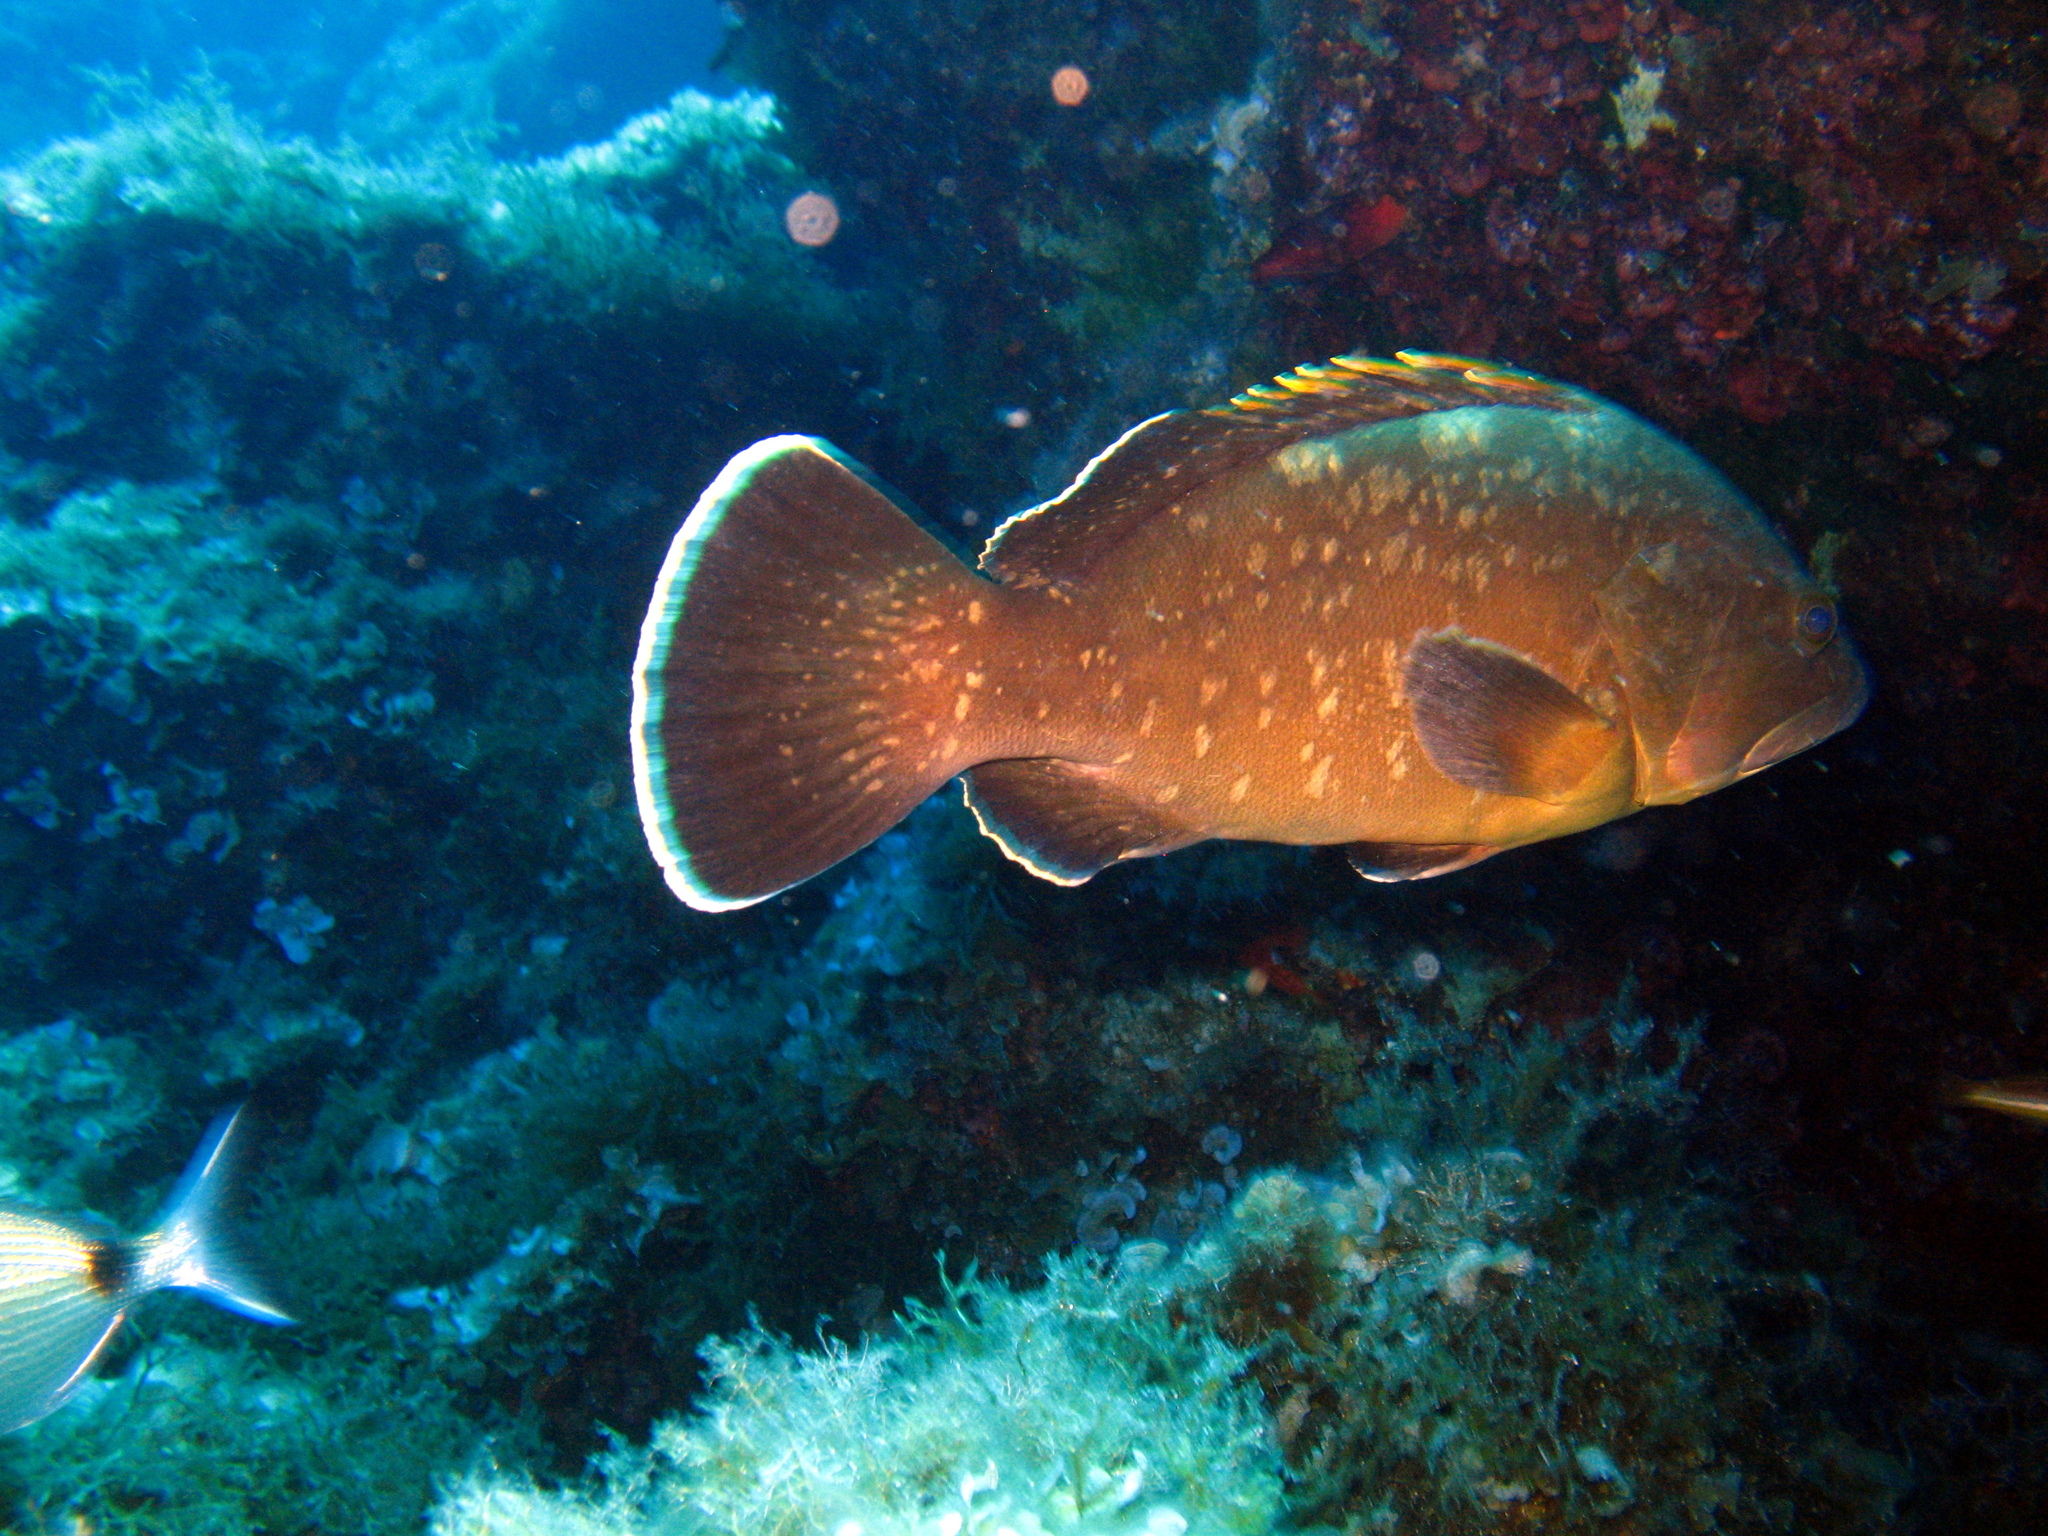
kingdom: Animalia
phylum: Chordata
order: Perciformes
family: Serranidae
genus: Epinephelus
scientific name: Epinephelus marginatus
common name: Dusky grouper
